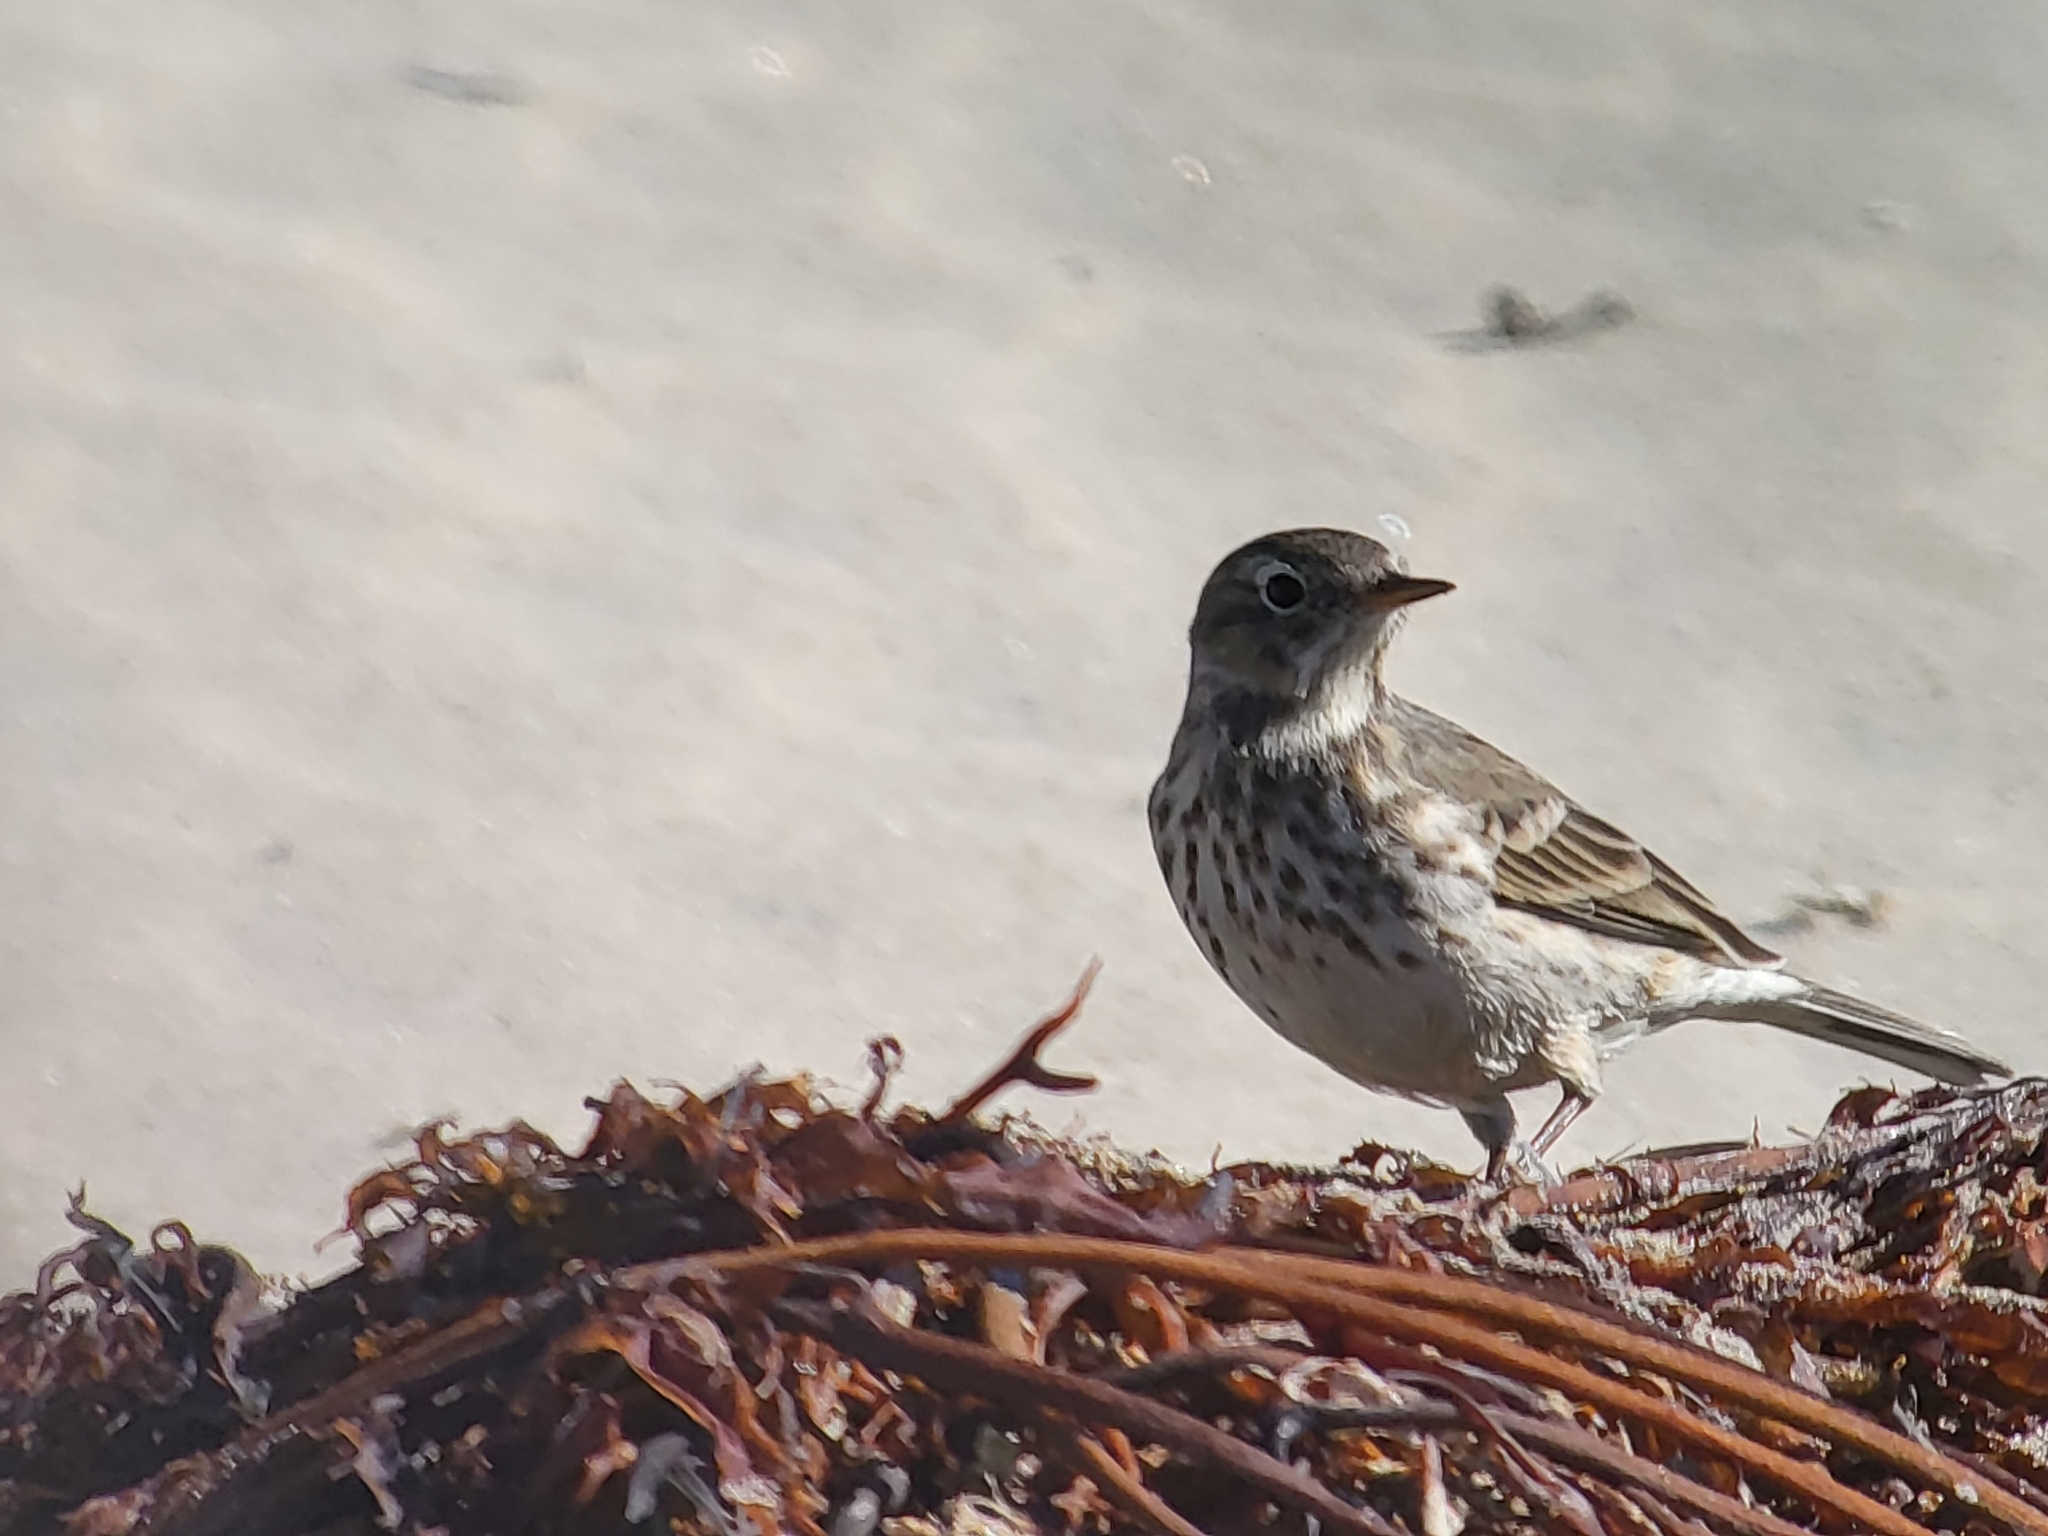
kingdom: Animalia
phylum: Chordata
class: Aves
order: Passeriformes
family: Motacillidae
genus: Anthus
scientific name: Anthus rubescens
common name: Buff-bellied pipit
